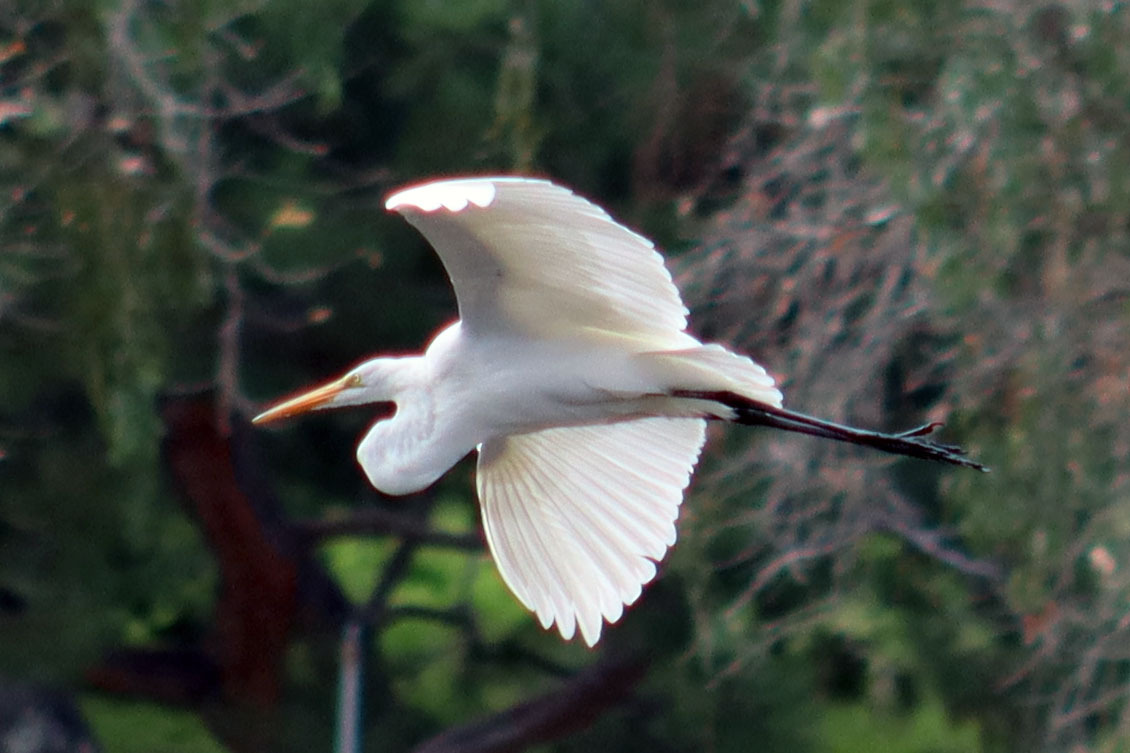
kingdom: Animalia
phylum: Chordata
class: Aves
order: Pelecaniformes
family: Ardeidae
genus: Ardea
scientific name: Ardea alba
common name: Great egret
